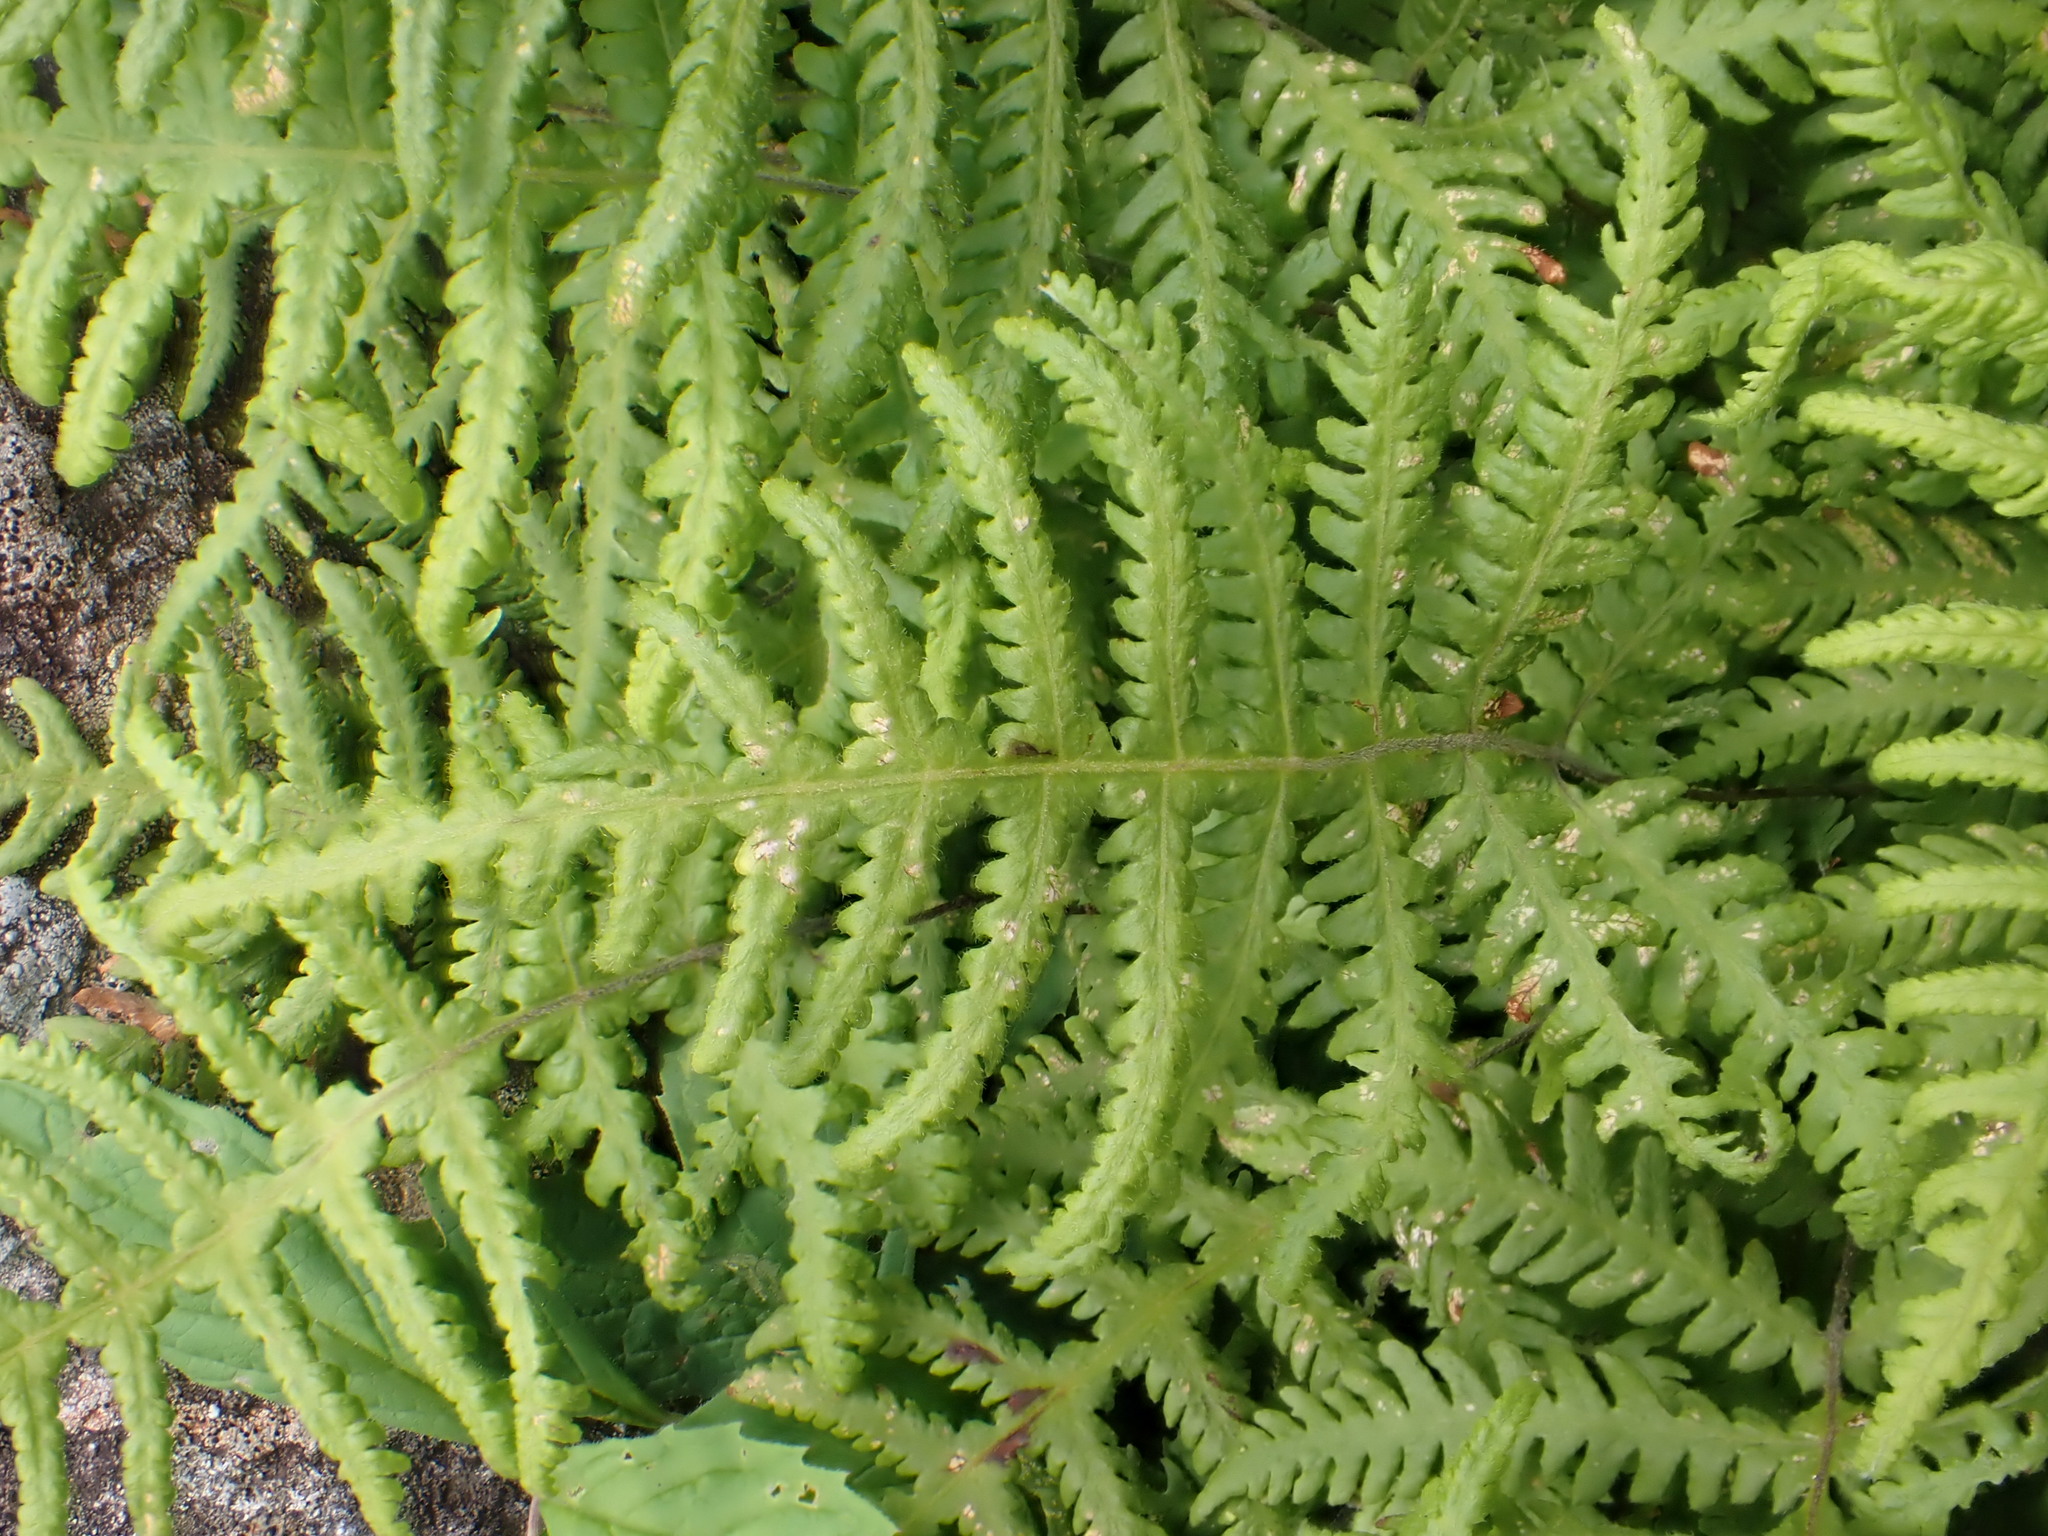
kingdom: Plantae
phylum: Tracheophyta
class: Polypodiopsida
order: Polypodiales
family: Thelypteridaceae
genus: Phegopteris
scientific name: Phegopteris connectilis
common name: Beech fern
